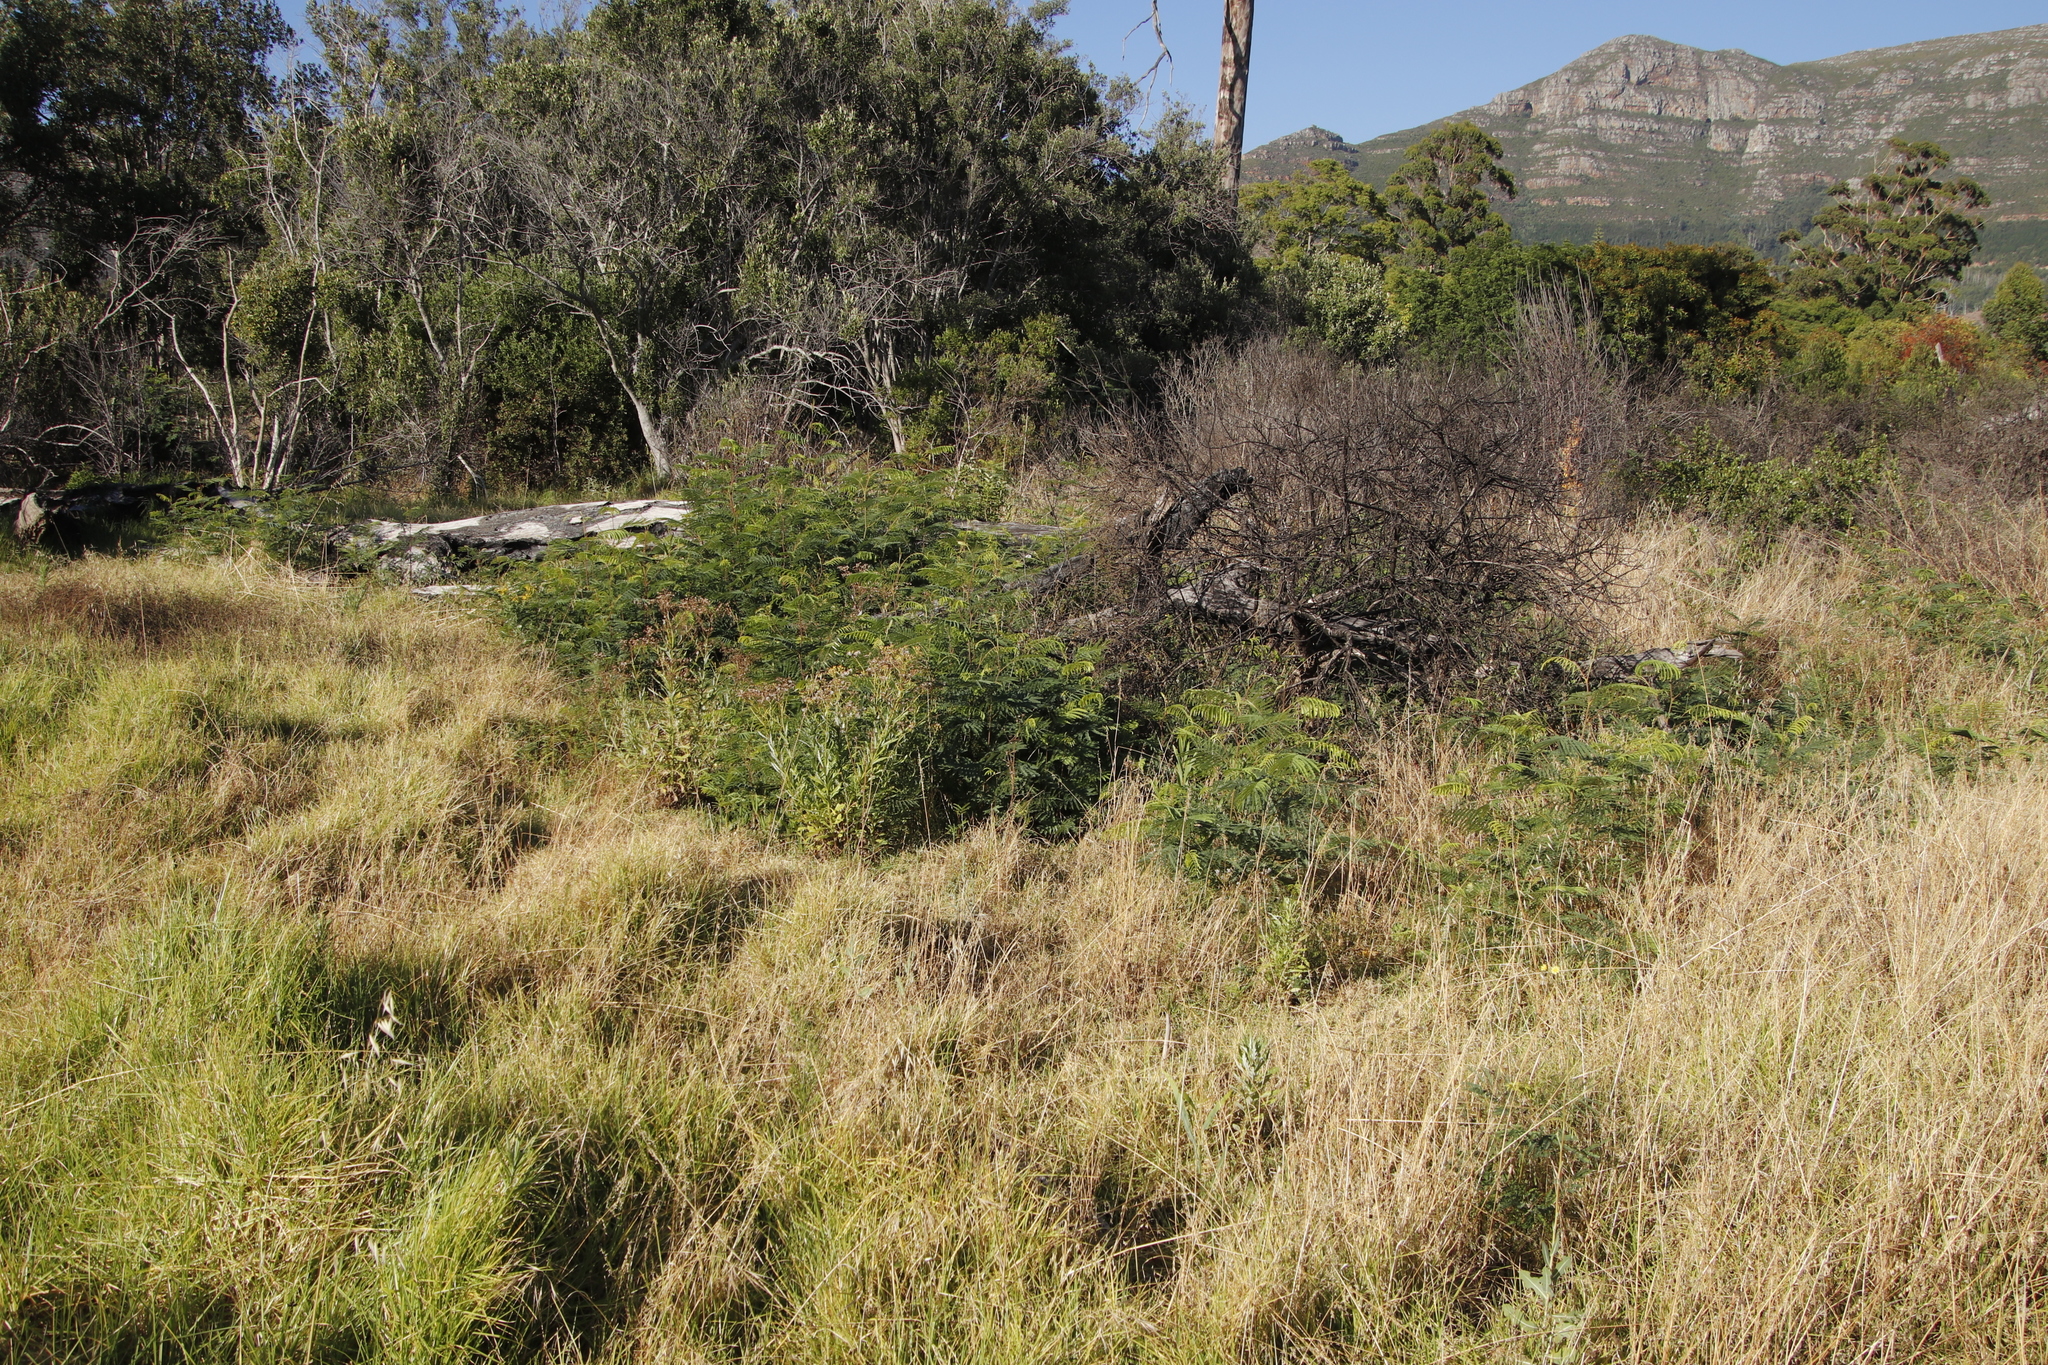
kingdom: Plantae
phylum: Tracheophyta
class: Magnoliopsida
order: Asterales
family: Asteraceae
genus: Senecio
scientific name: Senecio pterophorus
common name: Shoddy ragwort
